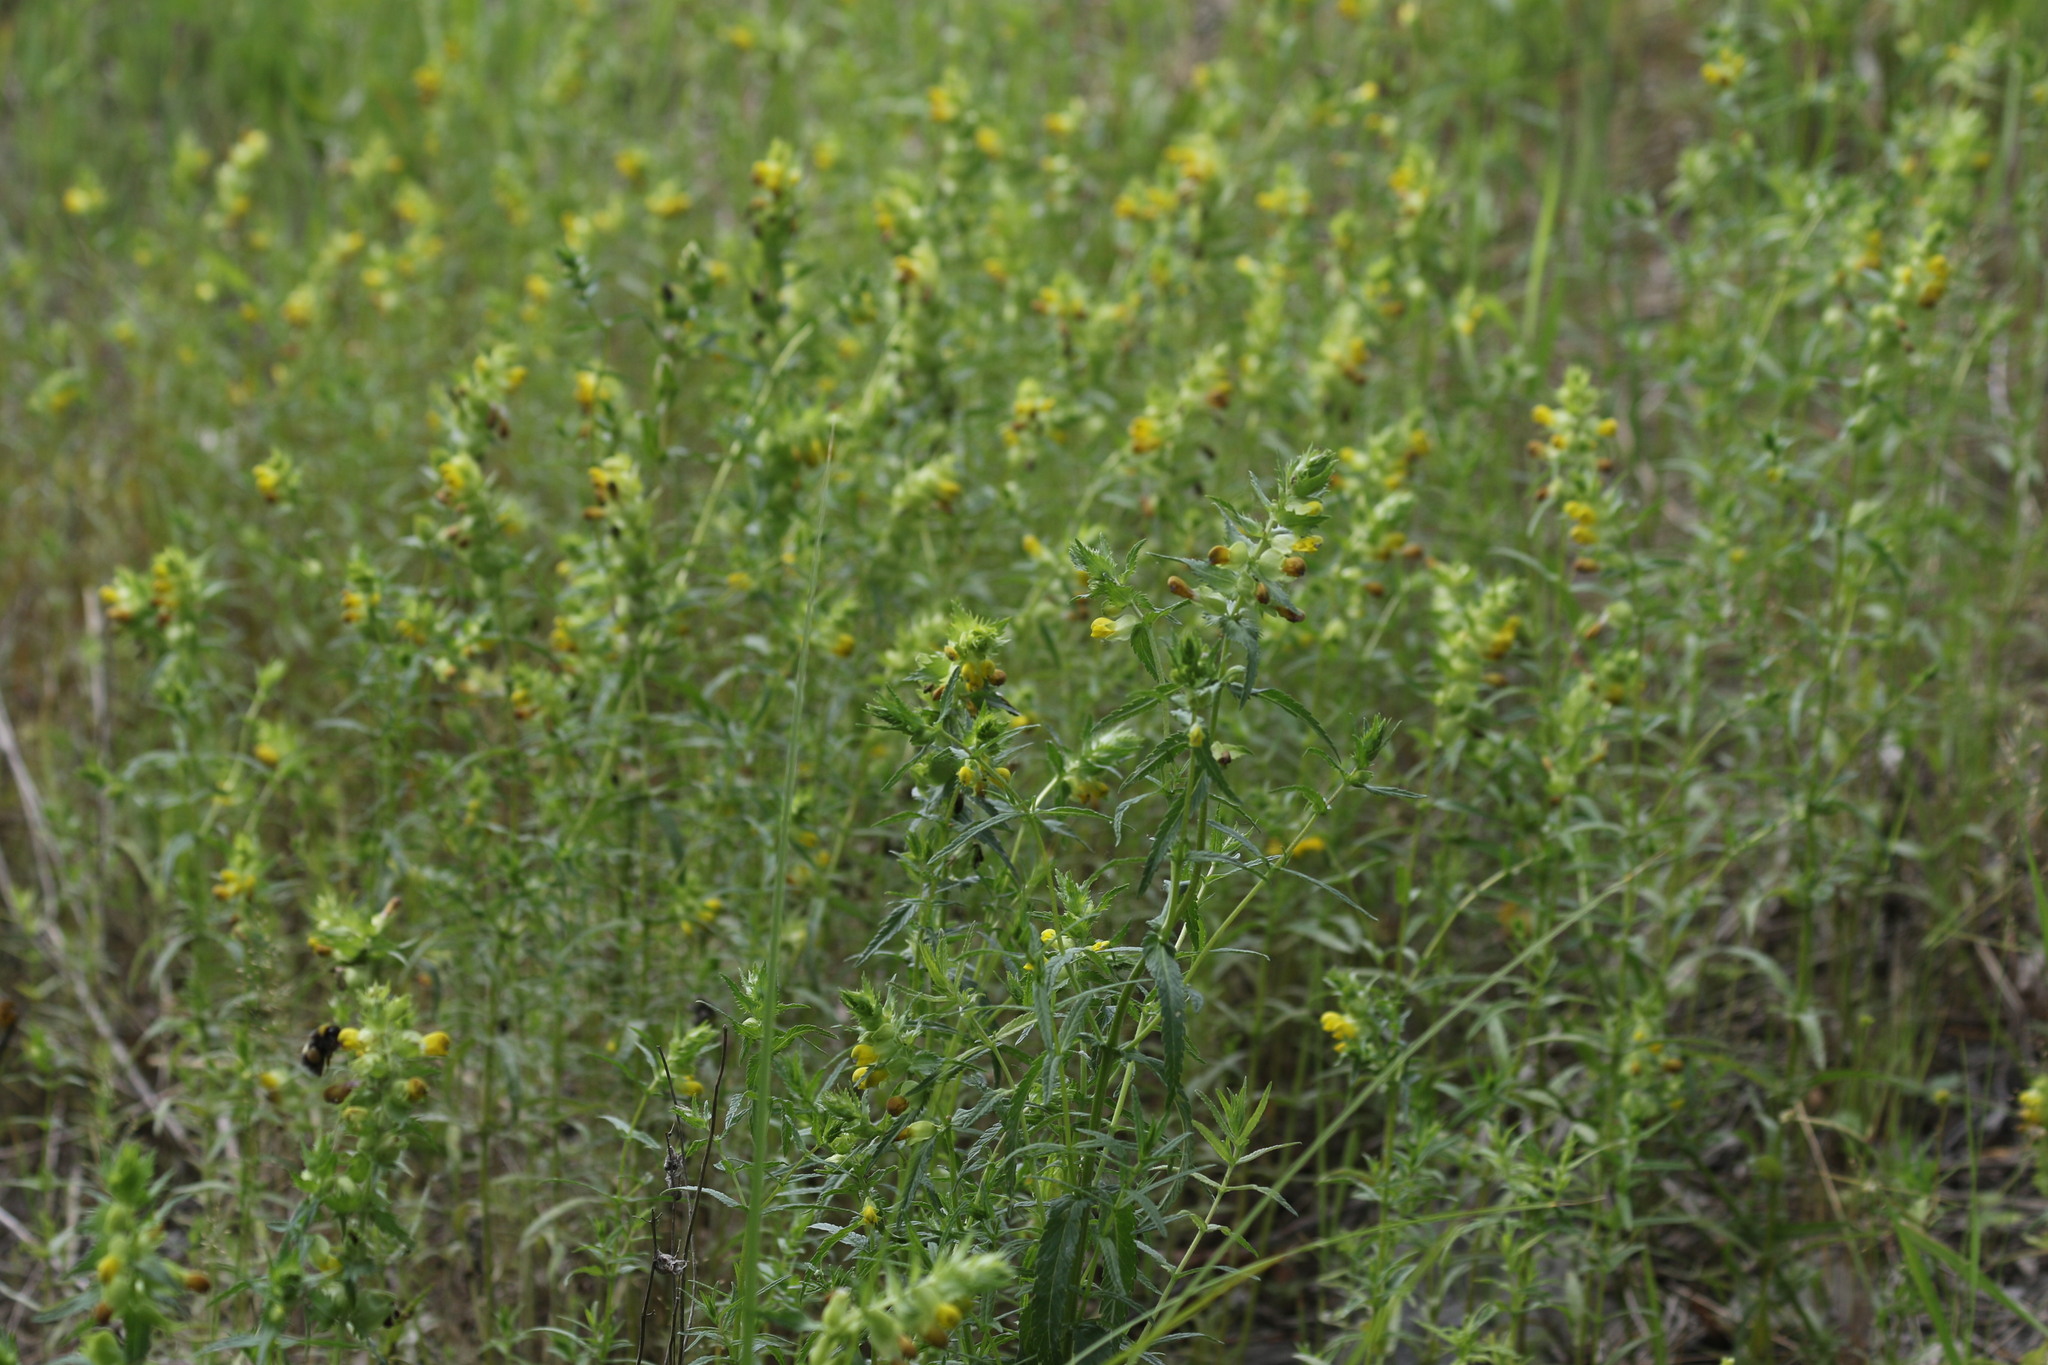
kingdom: Plantae
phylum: Tracheophyta
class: Magnoliopsida
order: Lamiales
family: Orobanchaceae
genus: Rhinanthus
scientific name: Rhinanthus serotinus
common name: Late-flowering yellow rattle
